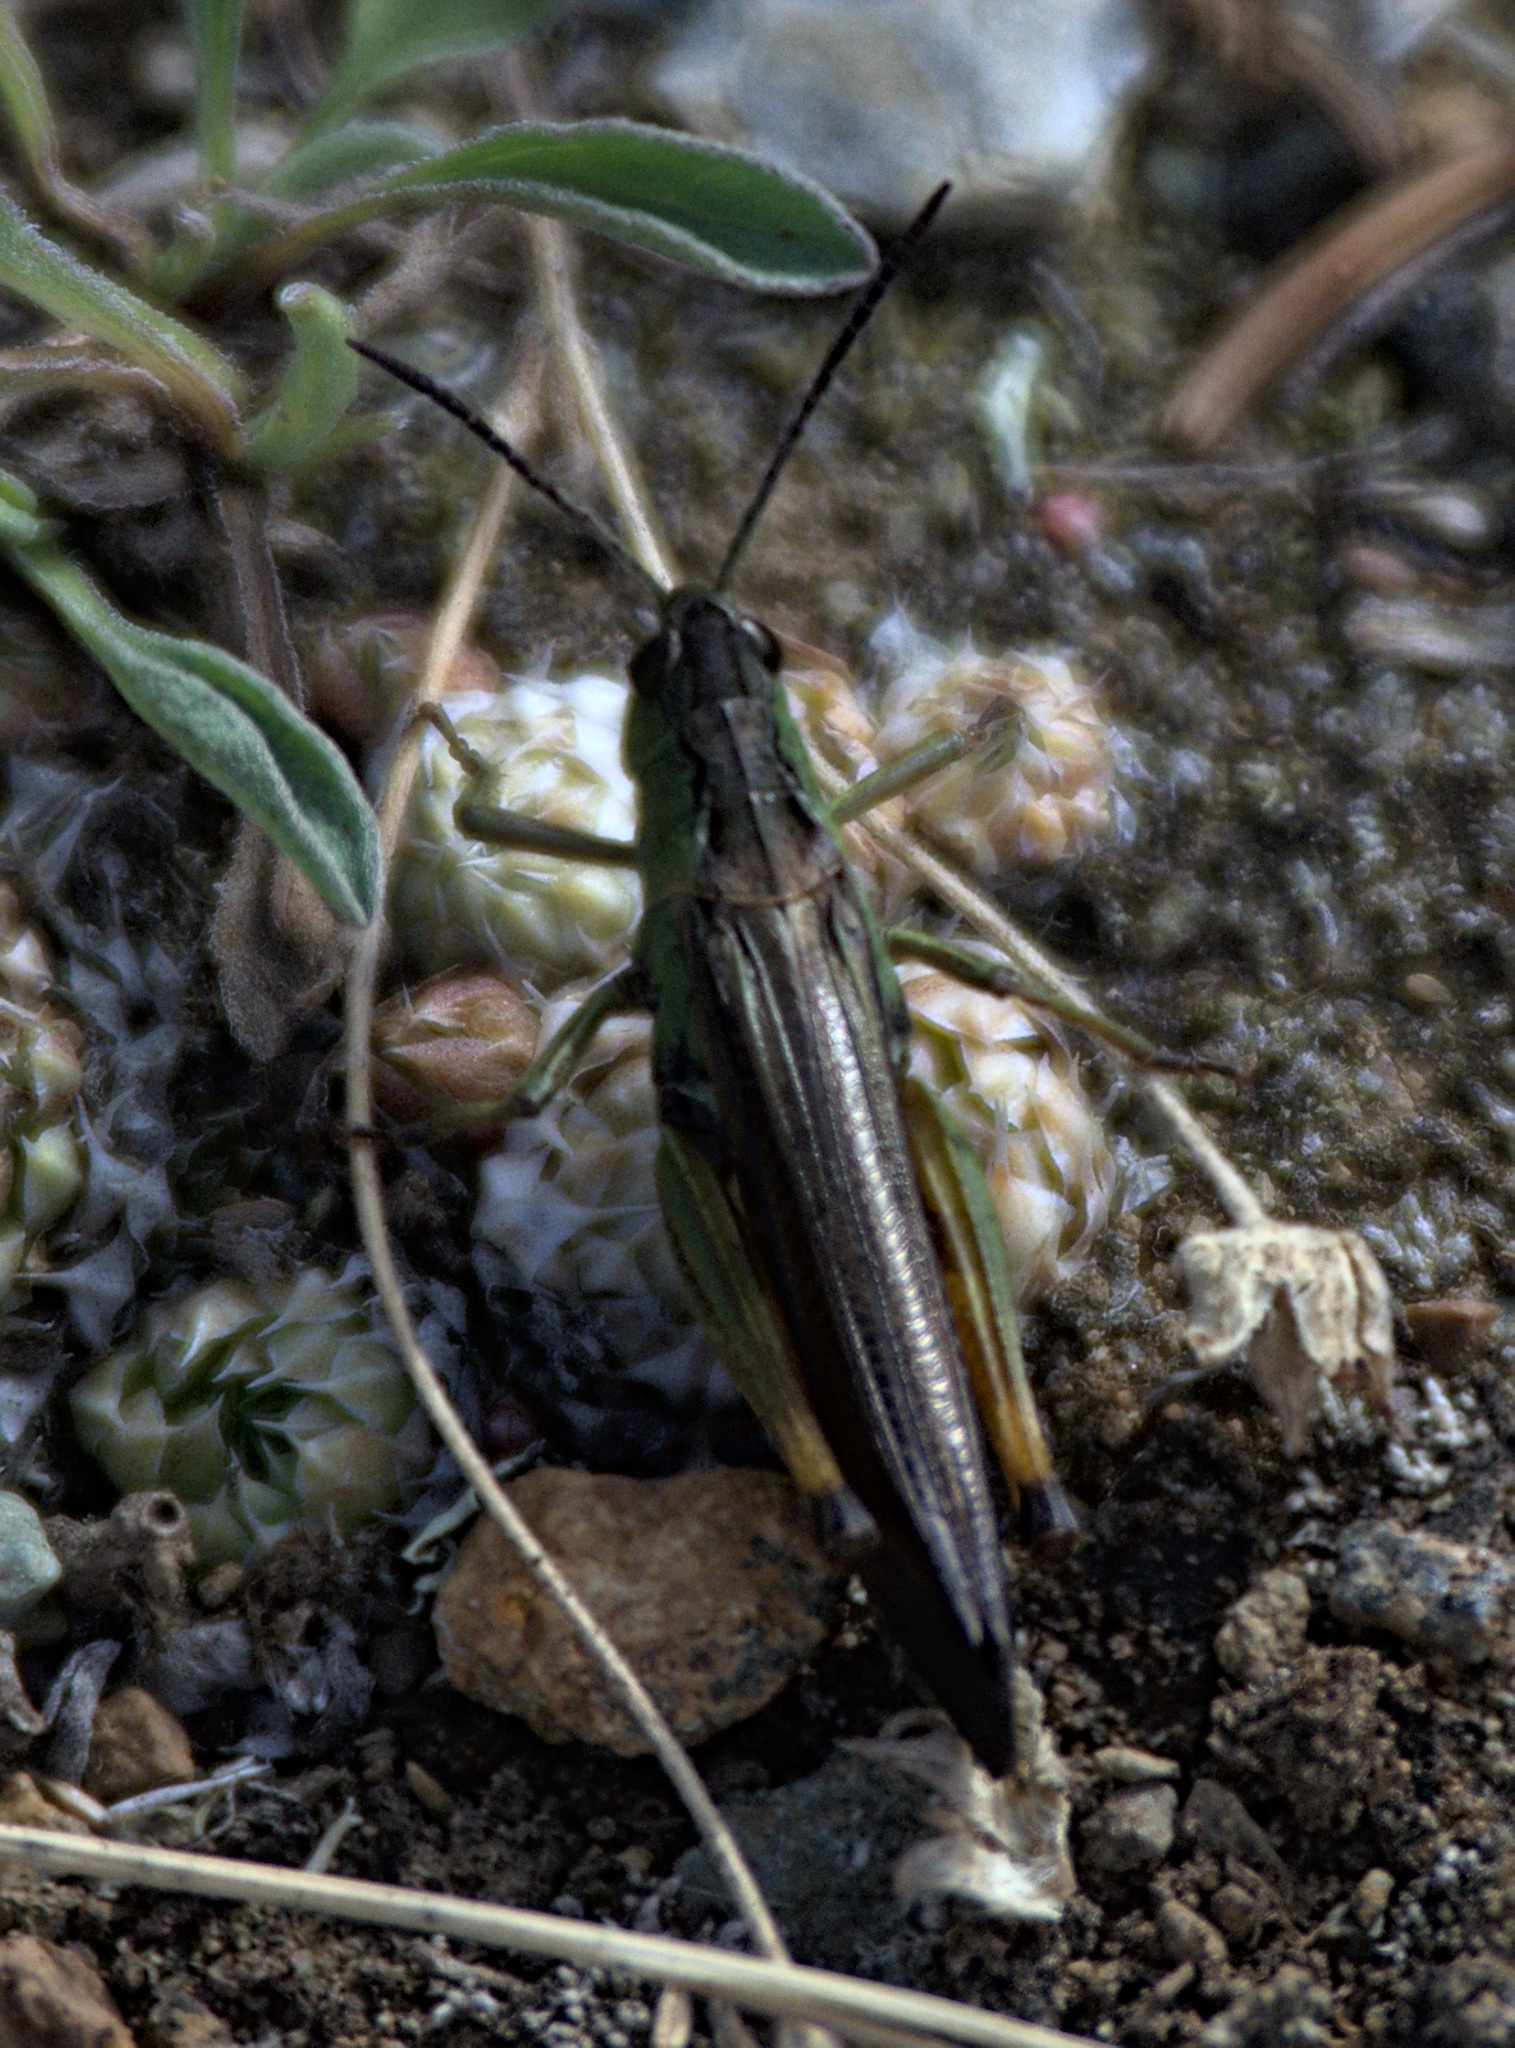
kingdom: Animalia
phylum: Arthropoda
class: Insecta
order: Orthoptera
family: Acrididae
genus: Stauroderus
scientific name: Stauroderus scalaris
